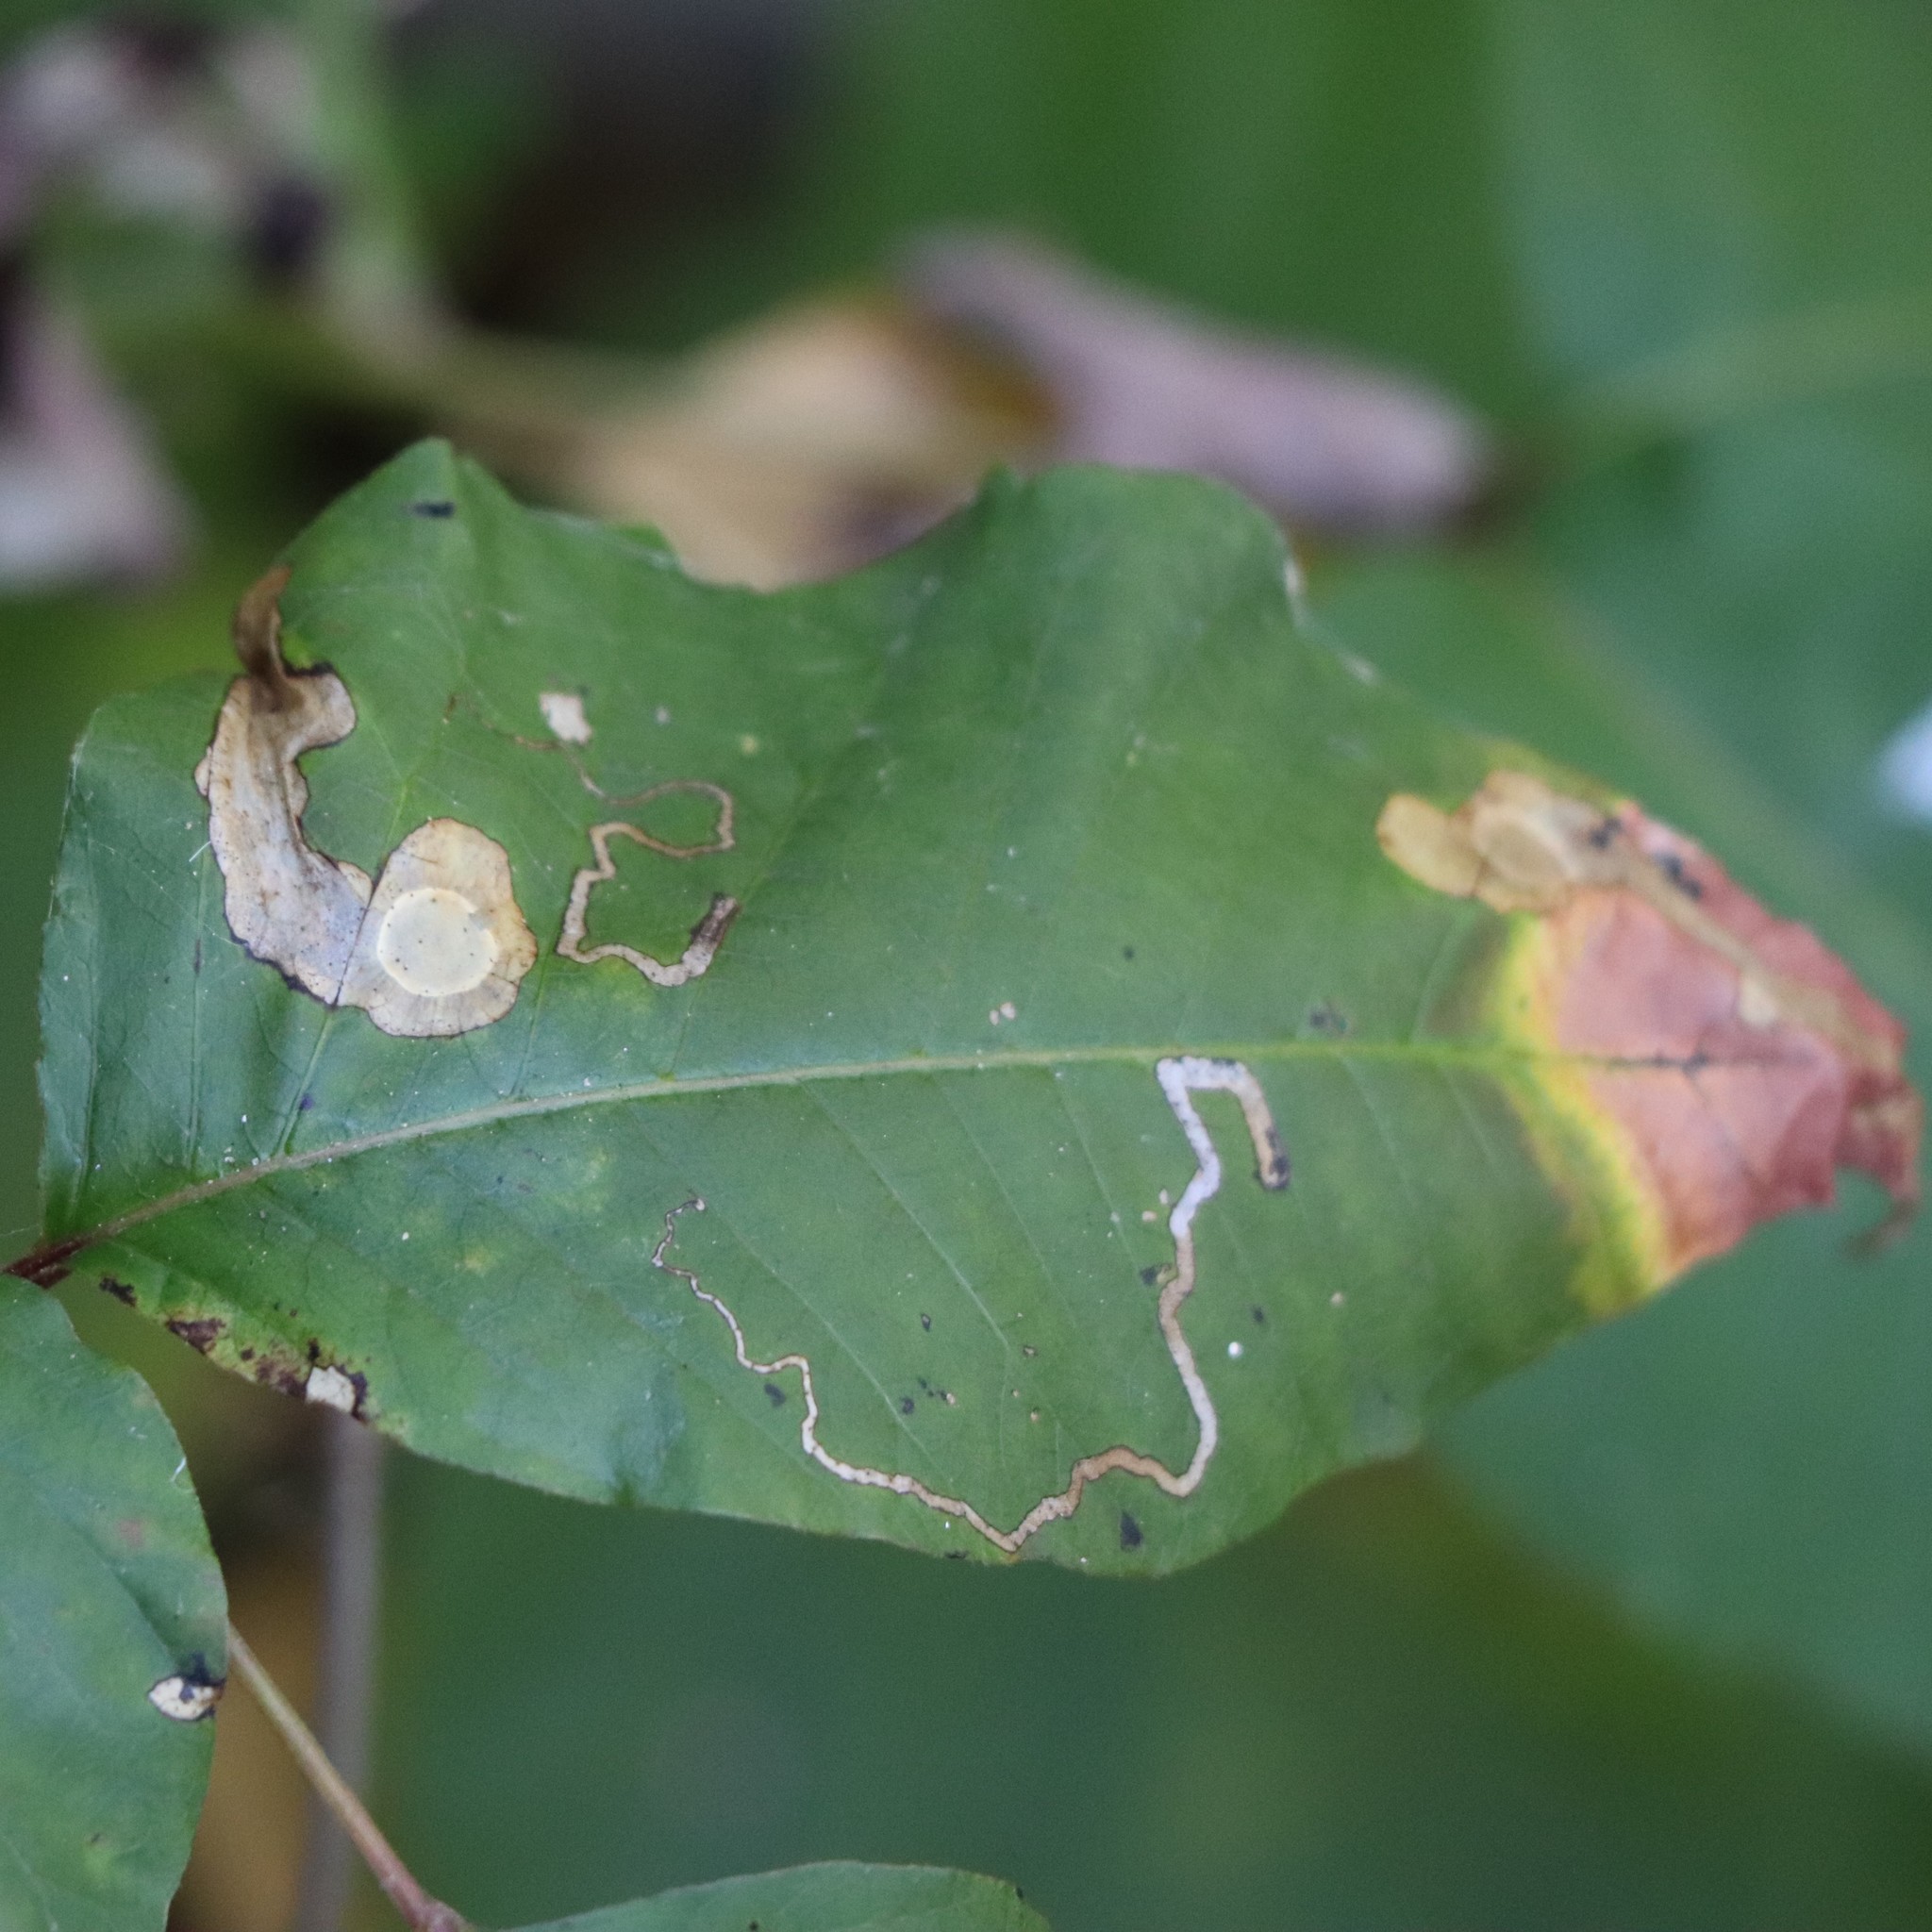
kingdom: Animalia
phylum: Arthropoda
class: Insecta
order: Lepidoptera
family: Gracillariidae
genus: Cameraria
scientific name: Cameraria guttifinitella
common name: Poison ivy leaf-miner moth
